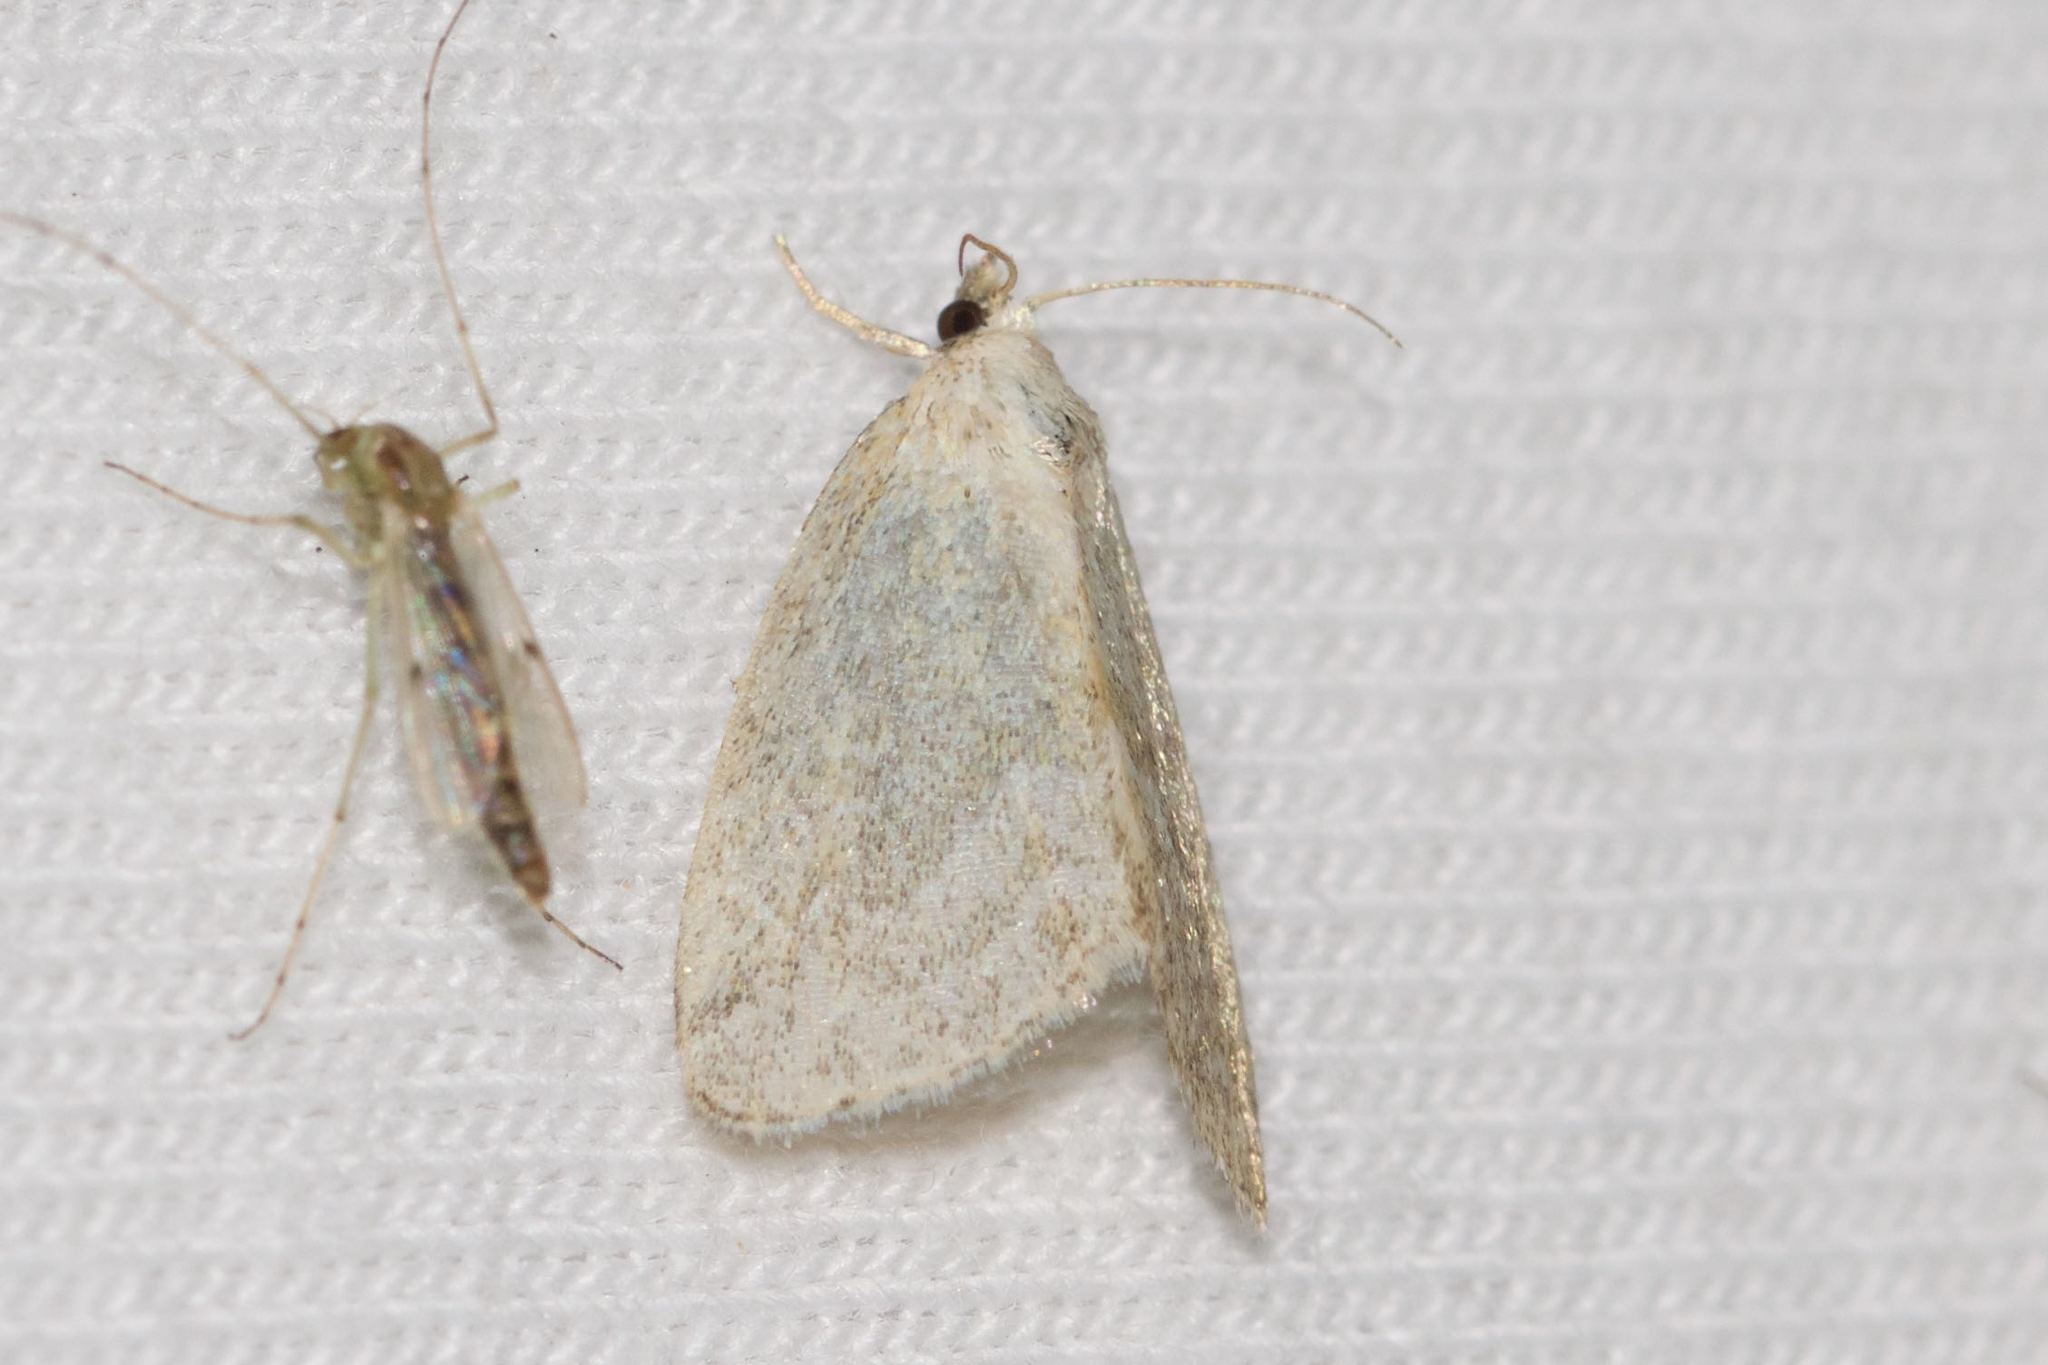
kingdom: Animalia
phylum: Arthropoda
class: Insecta
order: Lepidoptera
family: Noctuidae
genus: Protodeltote
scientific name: Protodeltote albidula
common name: Pale glyph
